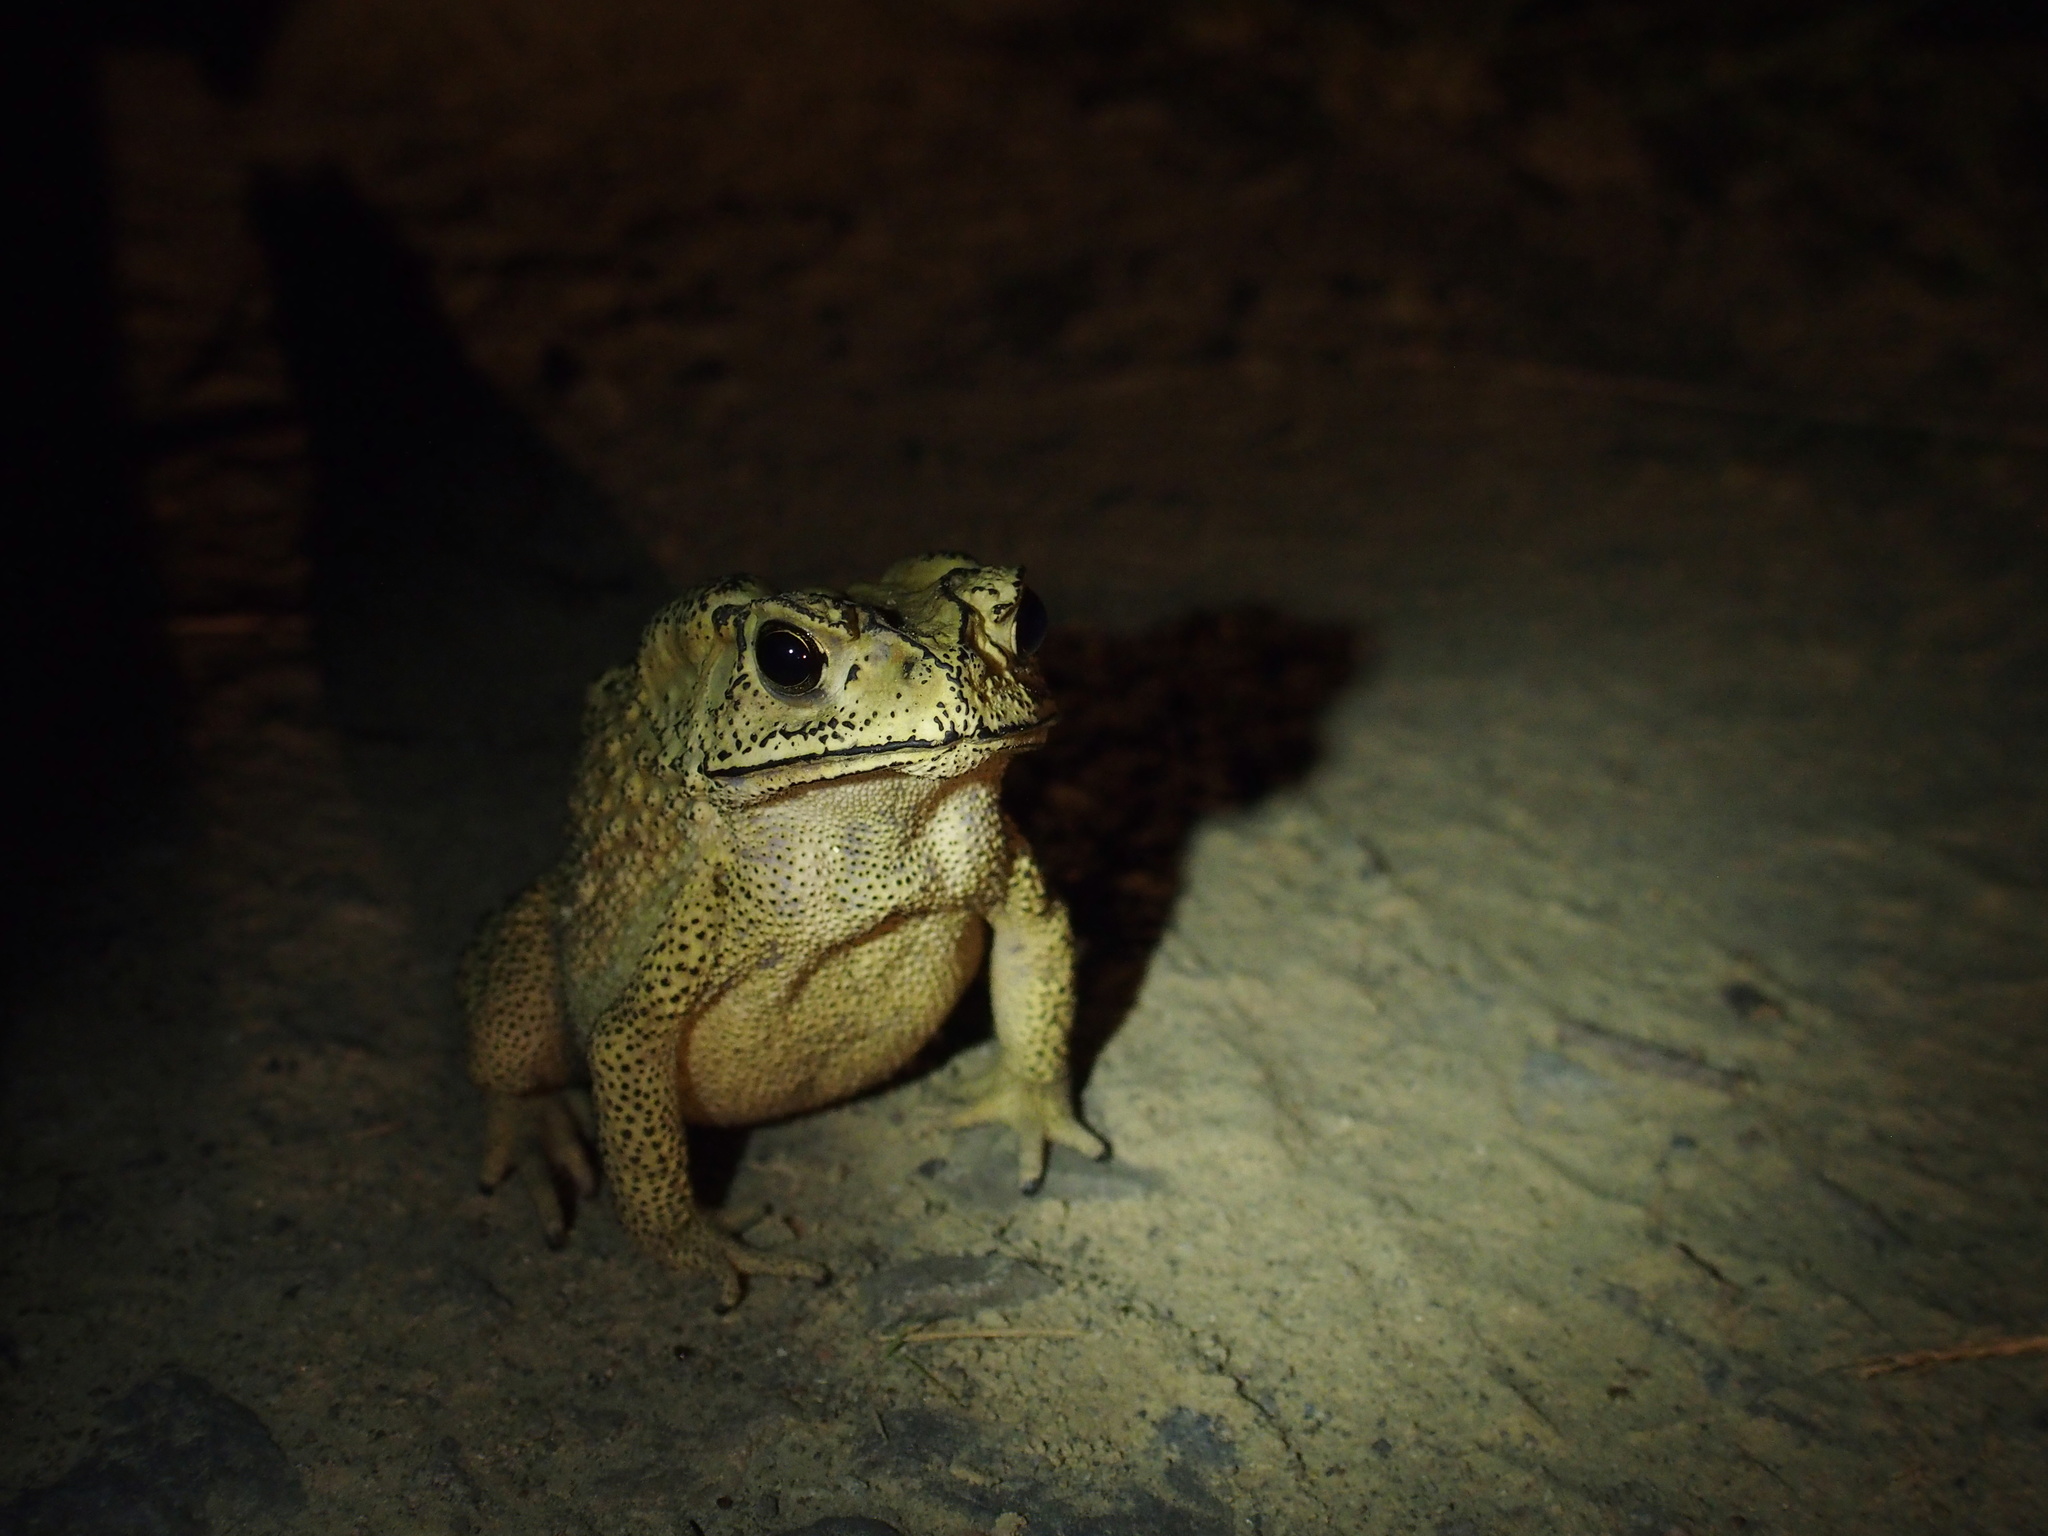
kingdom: Animalia
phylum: Chordata
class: Amphibia
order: Anura
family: Bufonidae
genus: Duttaphrynus
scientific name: Duttaphrynus melanostictus
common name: Common sunda toad
